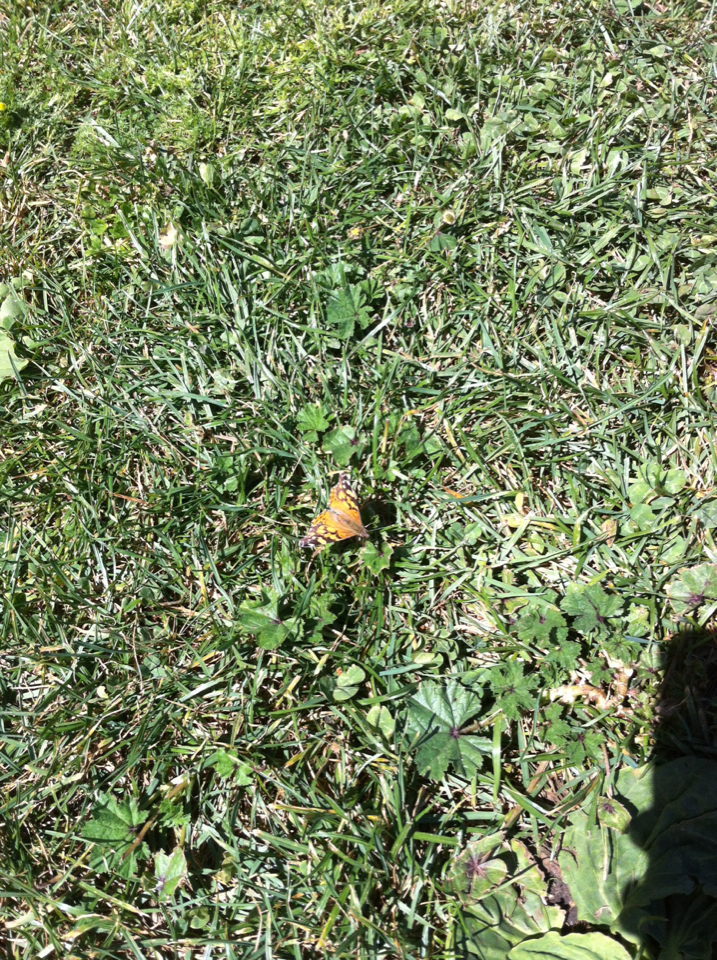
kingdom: Animalia
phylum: Arthropoda
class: Insecta
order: Lepidoptera
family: Nymphalidae
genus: Vanessa
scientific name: Vanessa annabella
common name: West coast lady
